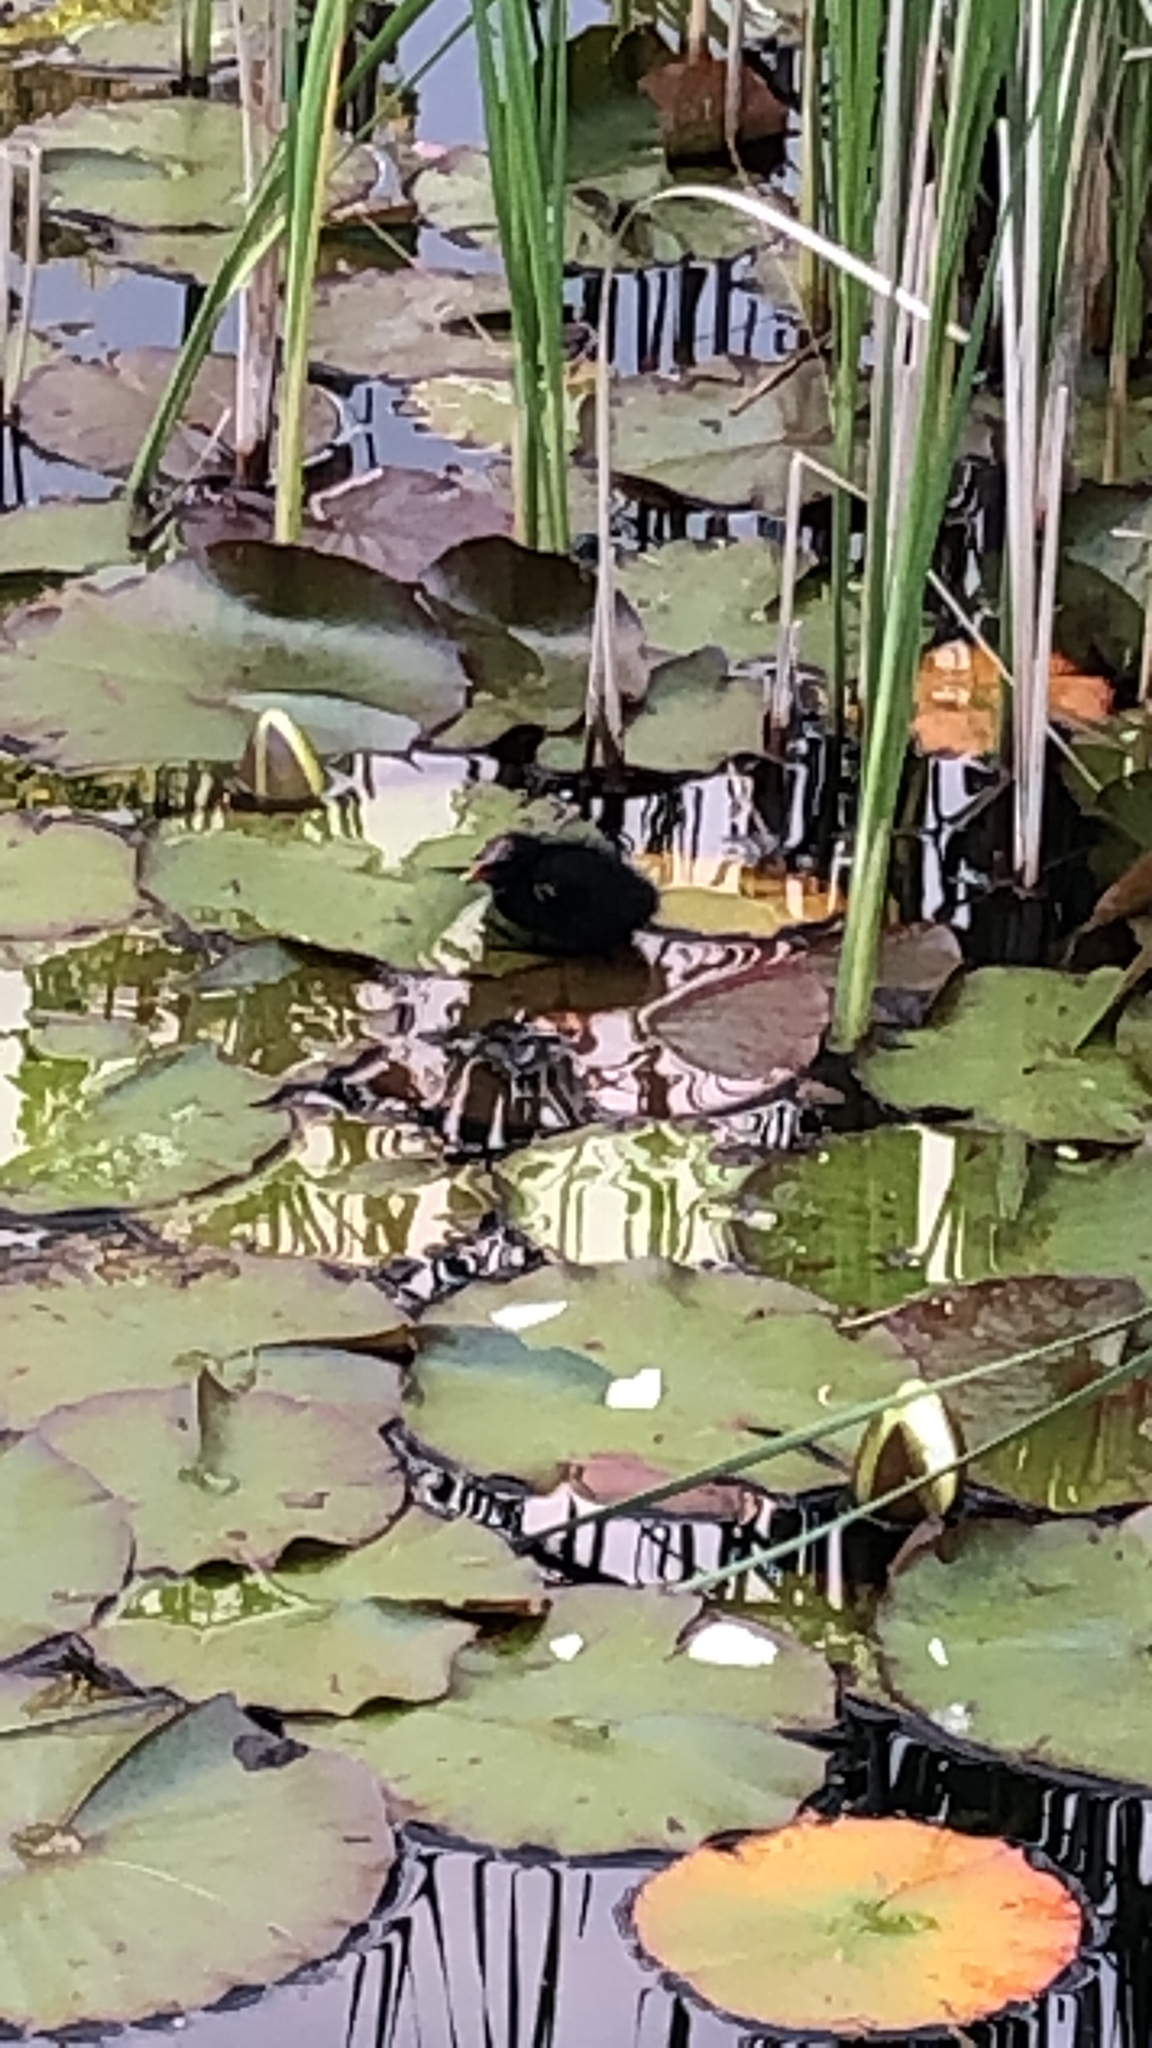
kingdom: Animalia
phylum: Chordata
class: Aves
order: Gruiformes
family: Rallidae
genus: Gallinula
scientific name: Gallinula chloropus
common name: Common moorhen
